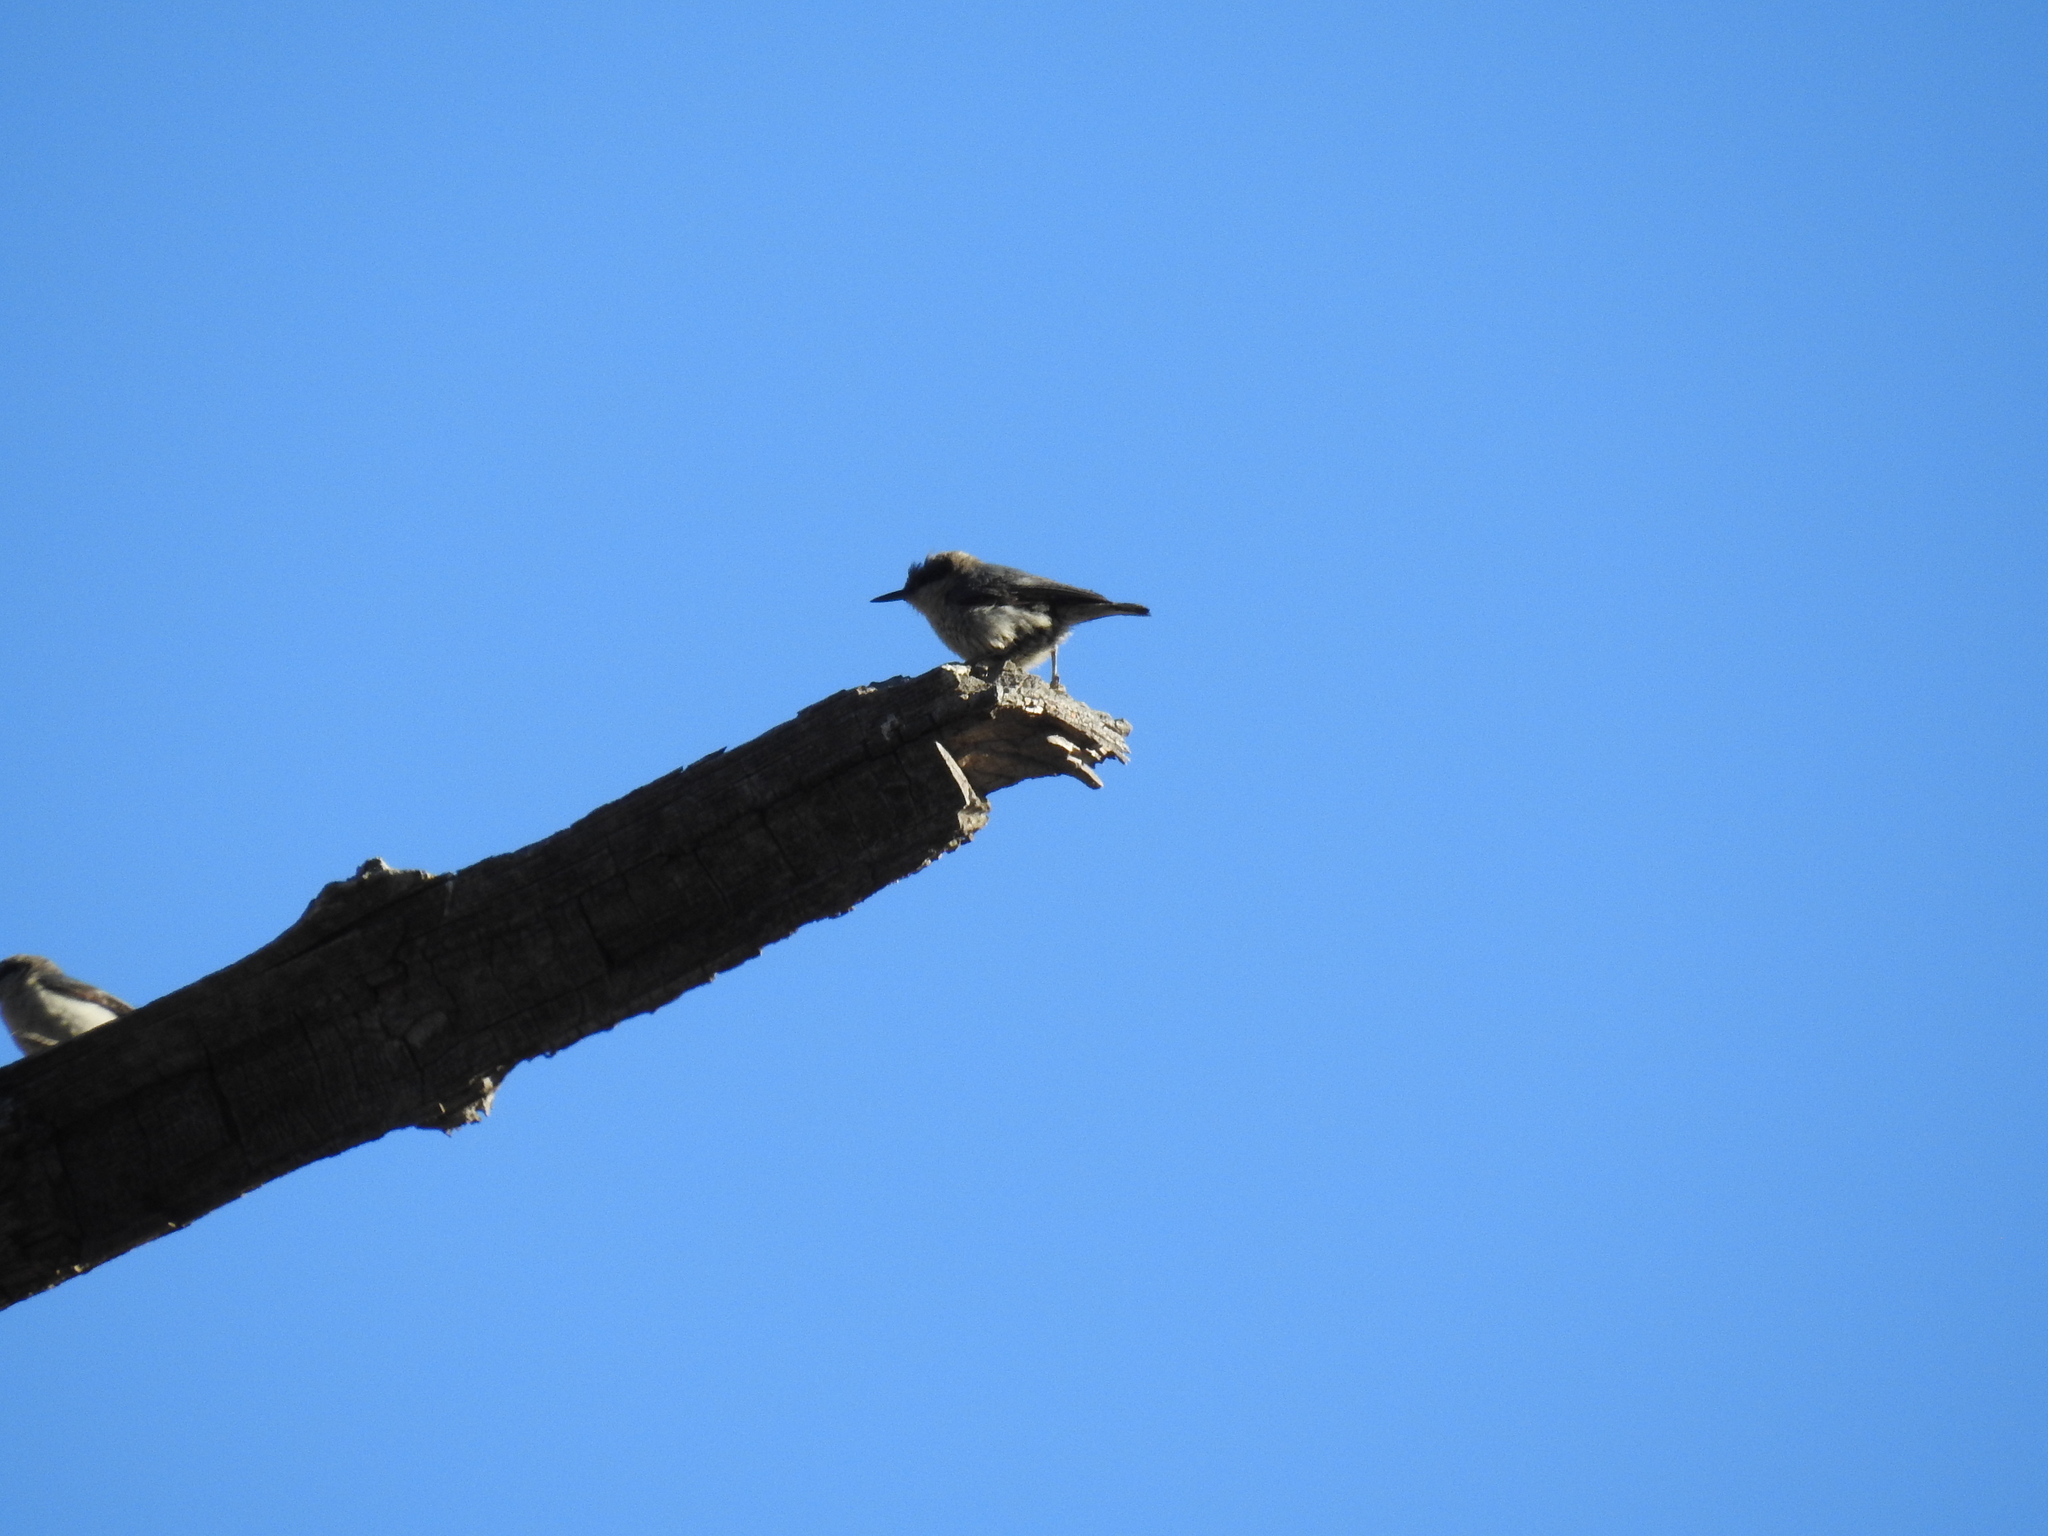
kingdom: Animalia
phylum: Chordata
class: Aves
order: Passeriformes
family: Sittidae
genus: Sitta
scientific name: Sitta pygmaea
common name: Pygmy nuthatch
